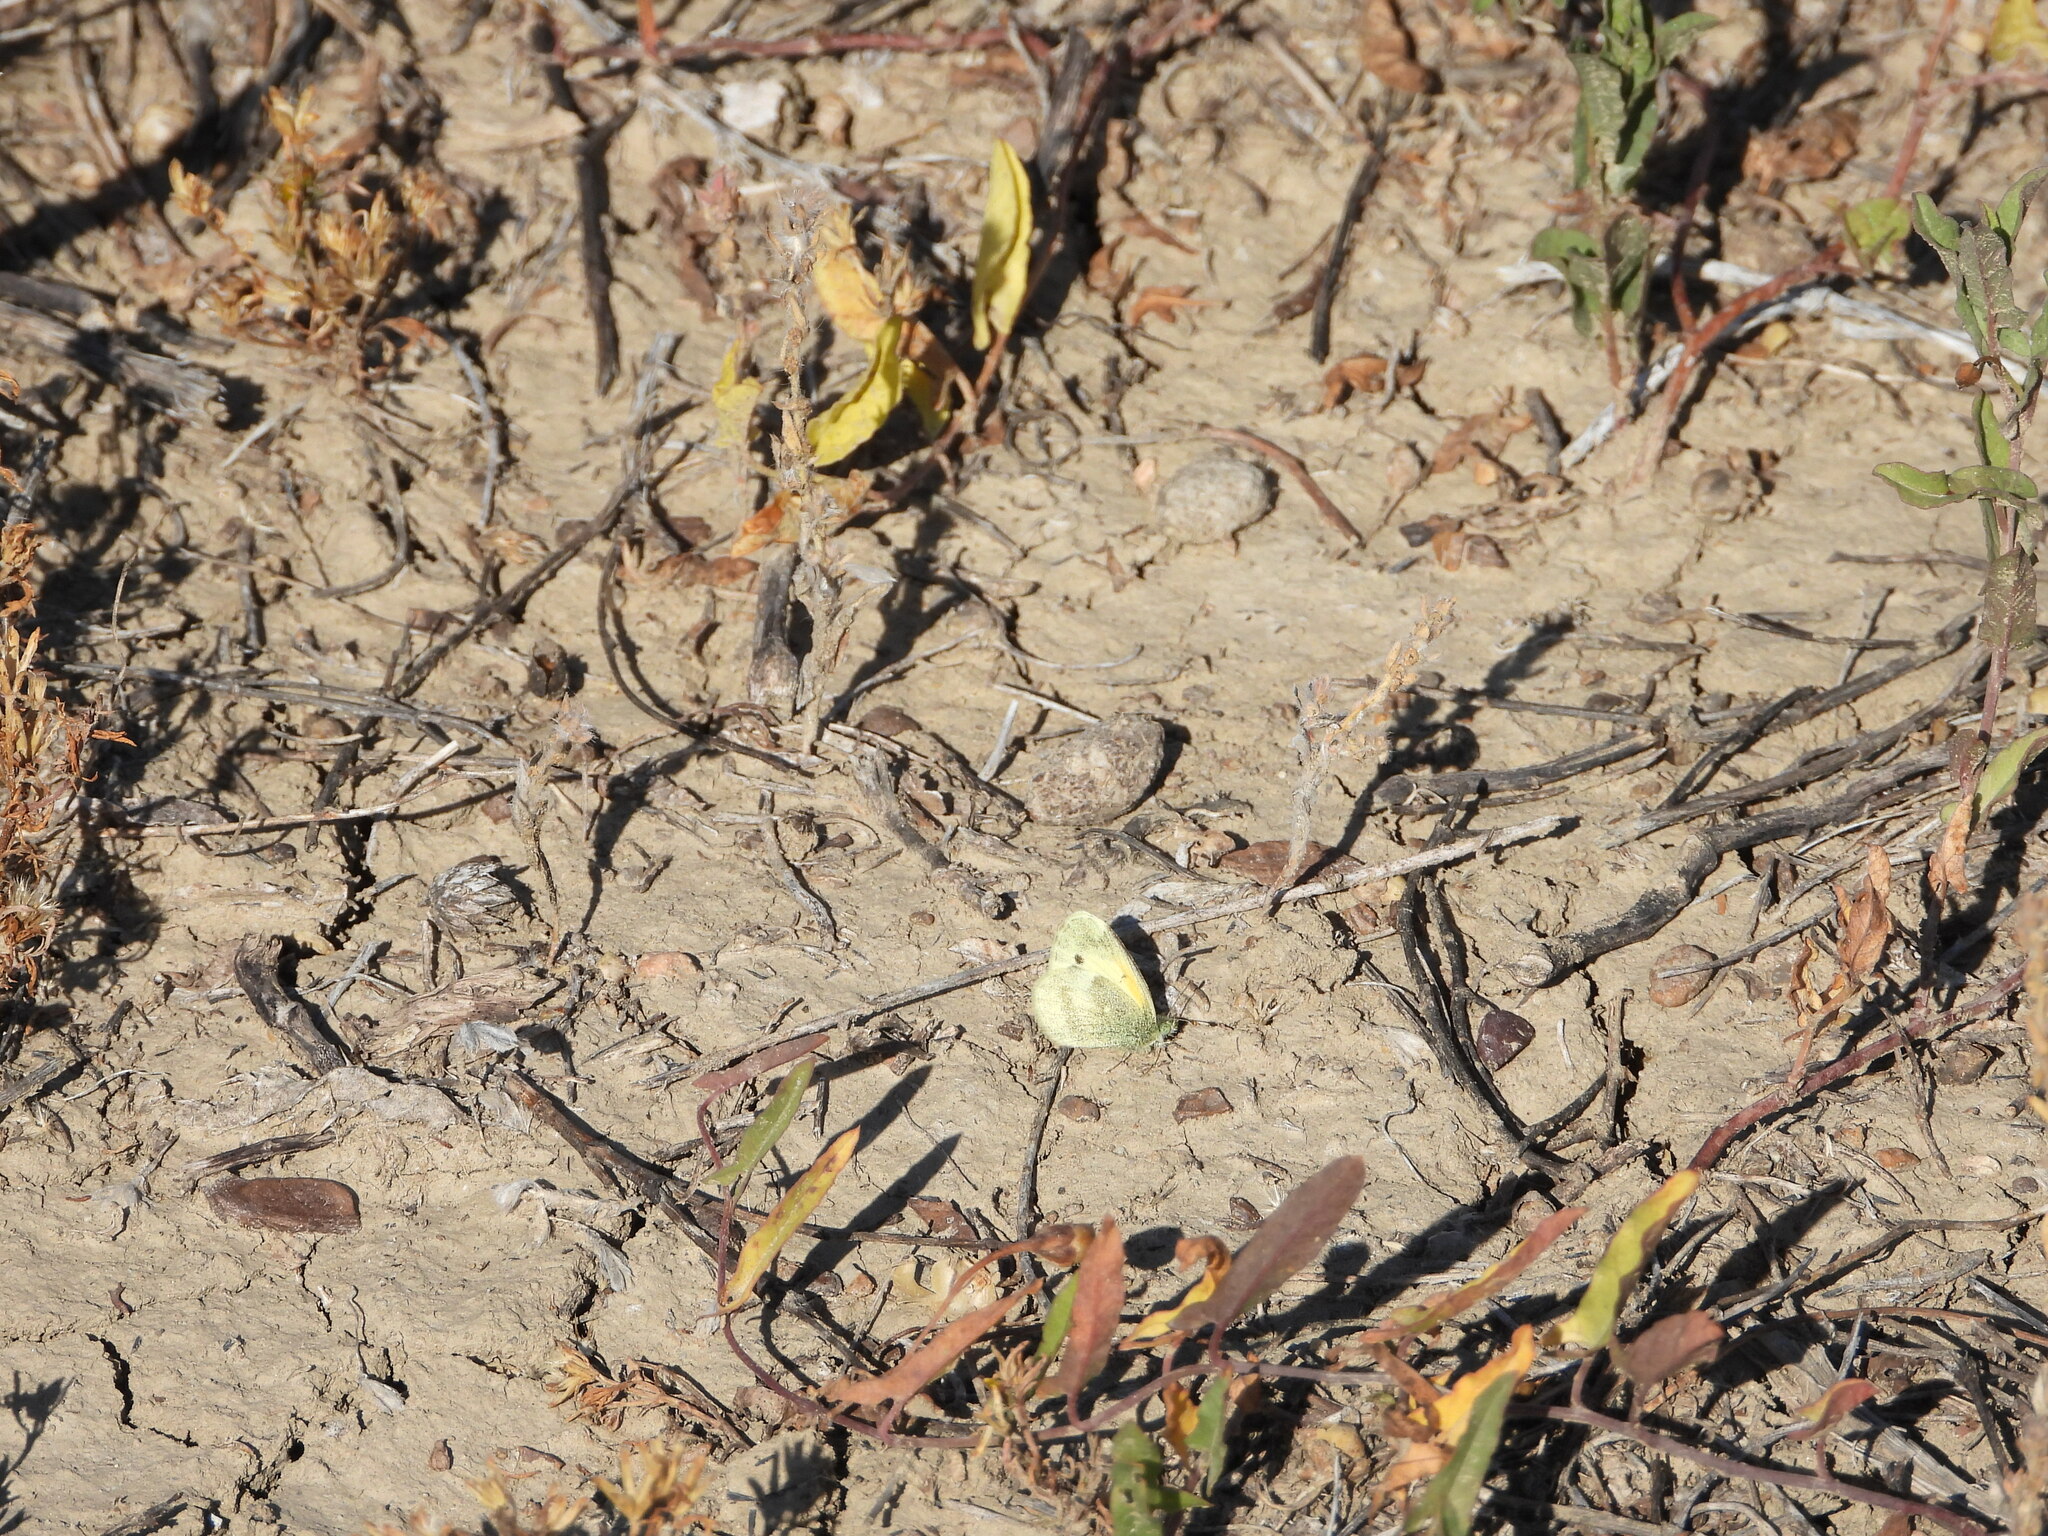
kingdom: Animalia
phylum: Arthropoda
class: Insecta
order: Lepidoptera
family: Pieridae
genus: Nathalis
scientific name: Nathalis iole
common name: Dainty sulphur
